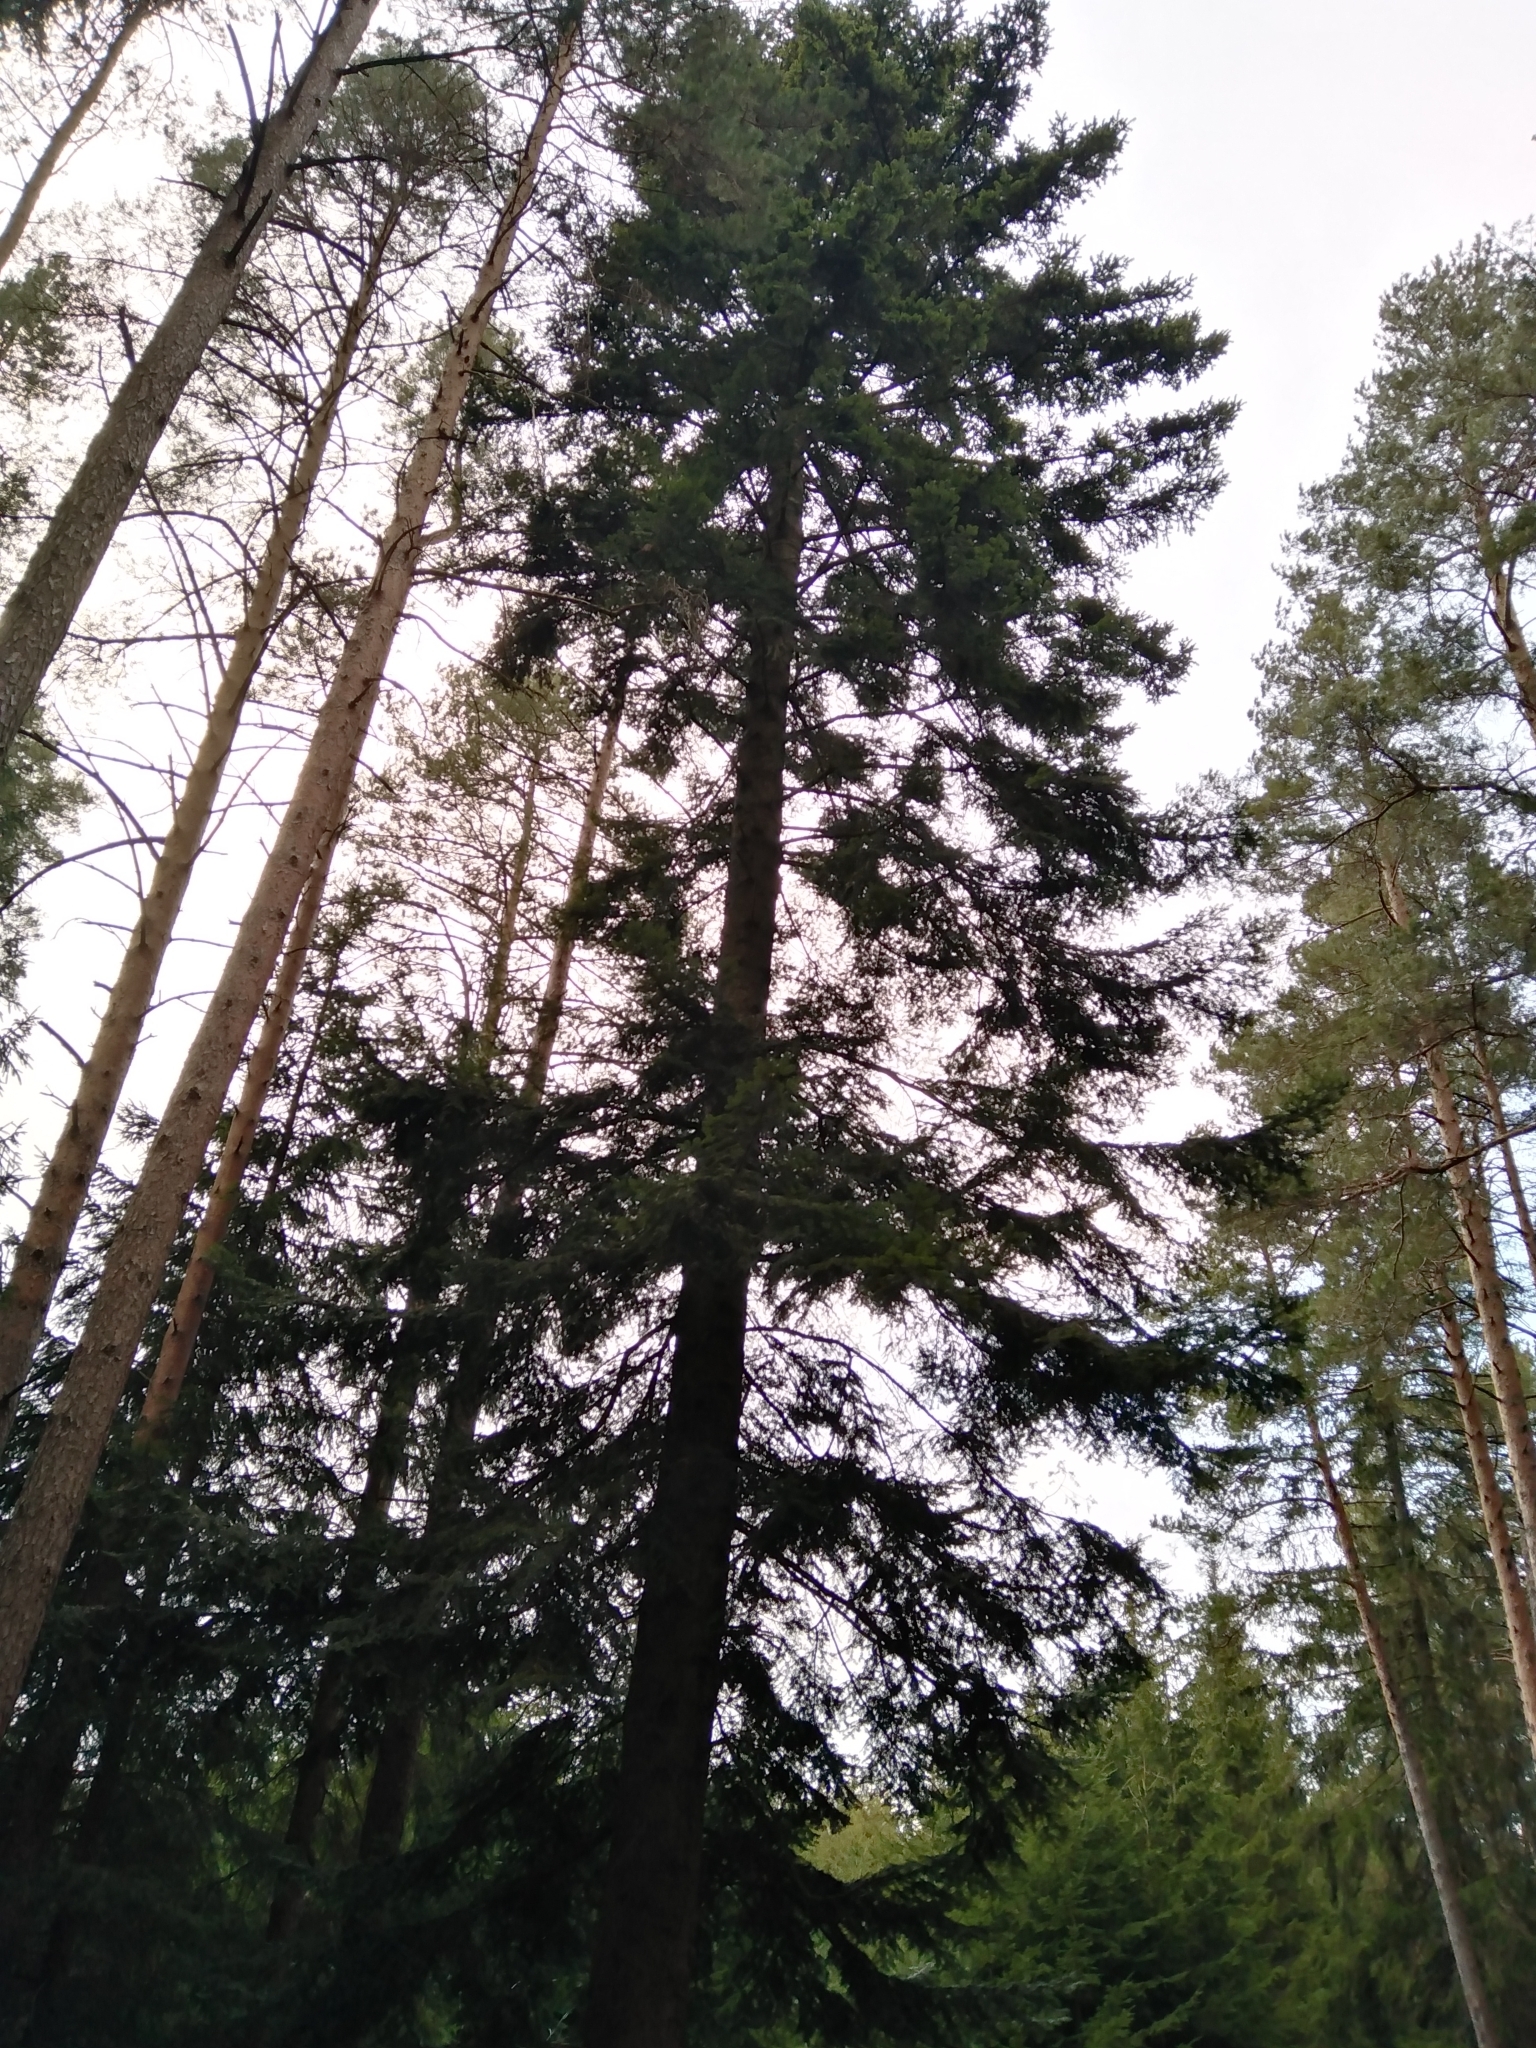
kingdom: Plantae
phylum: Tracheophyta
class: Pinopsida
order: Pinales
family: Pinaceae
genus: Abies
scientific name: Abies alba
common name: Silver fir
